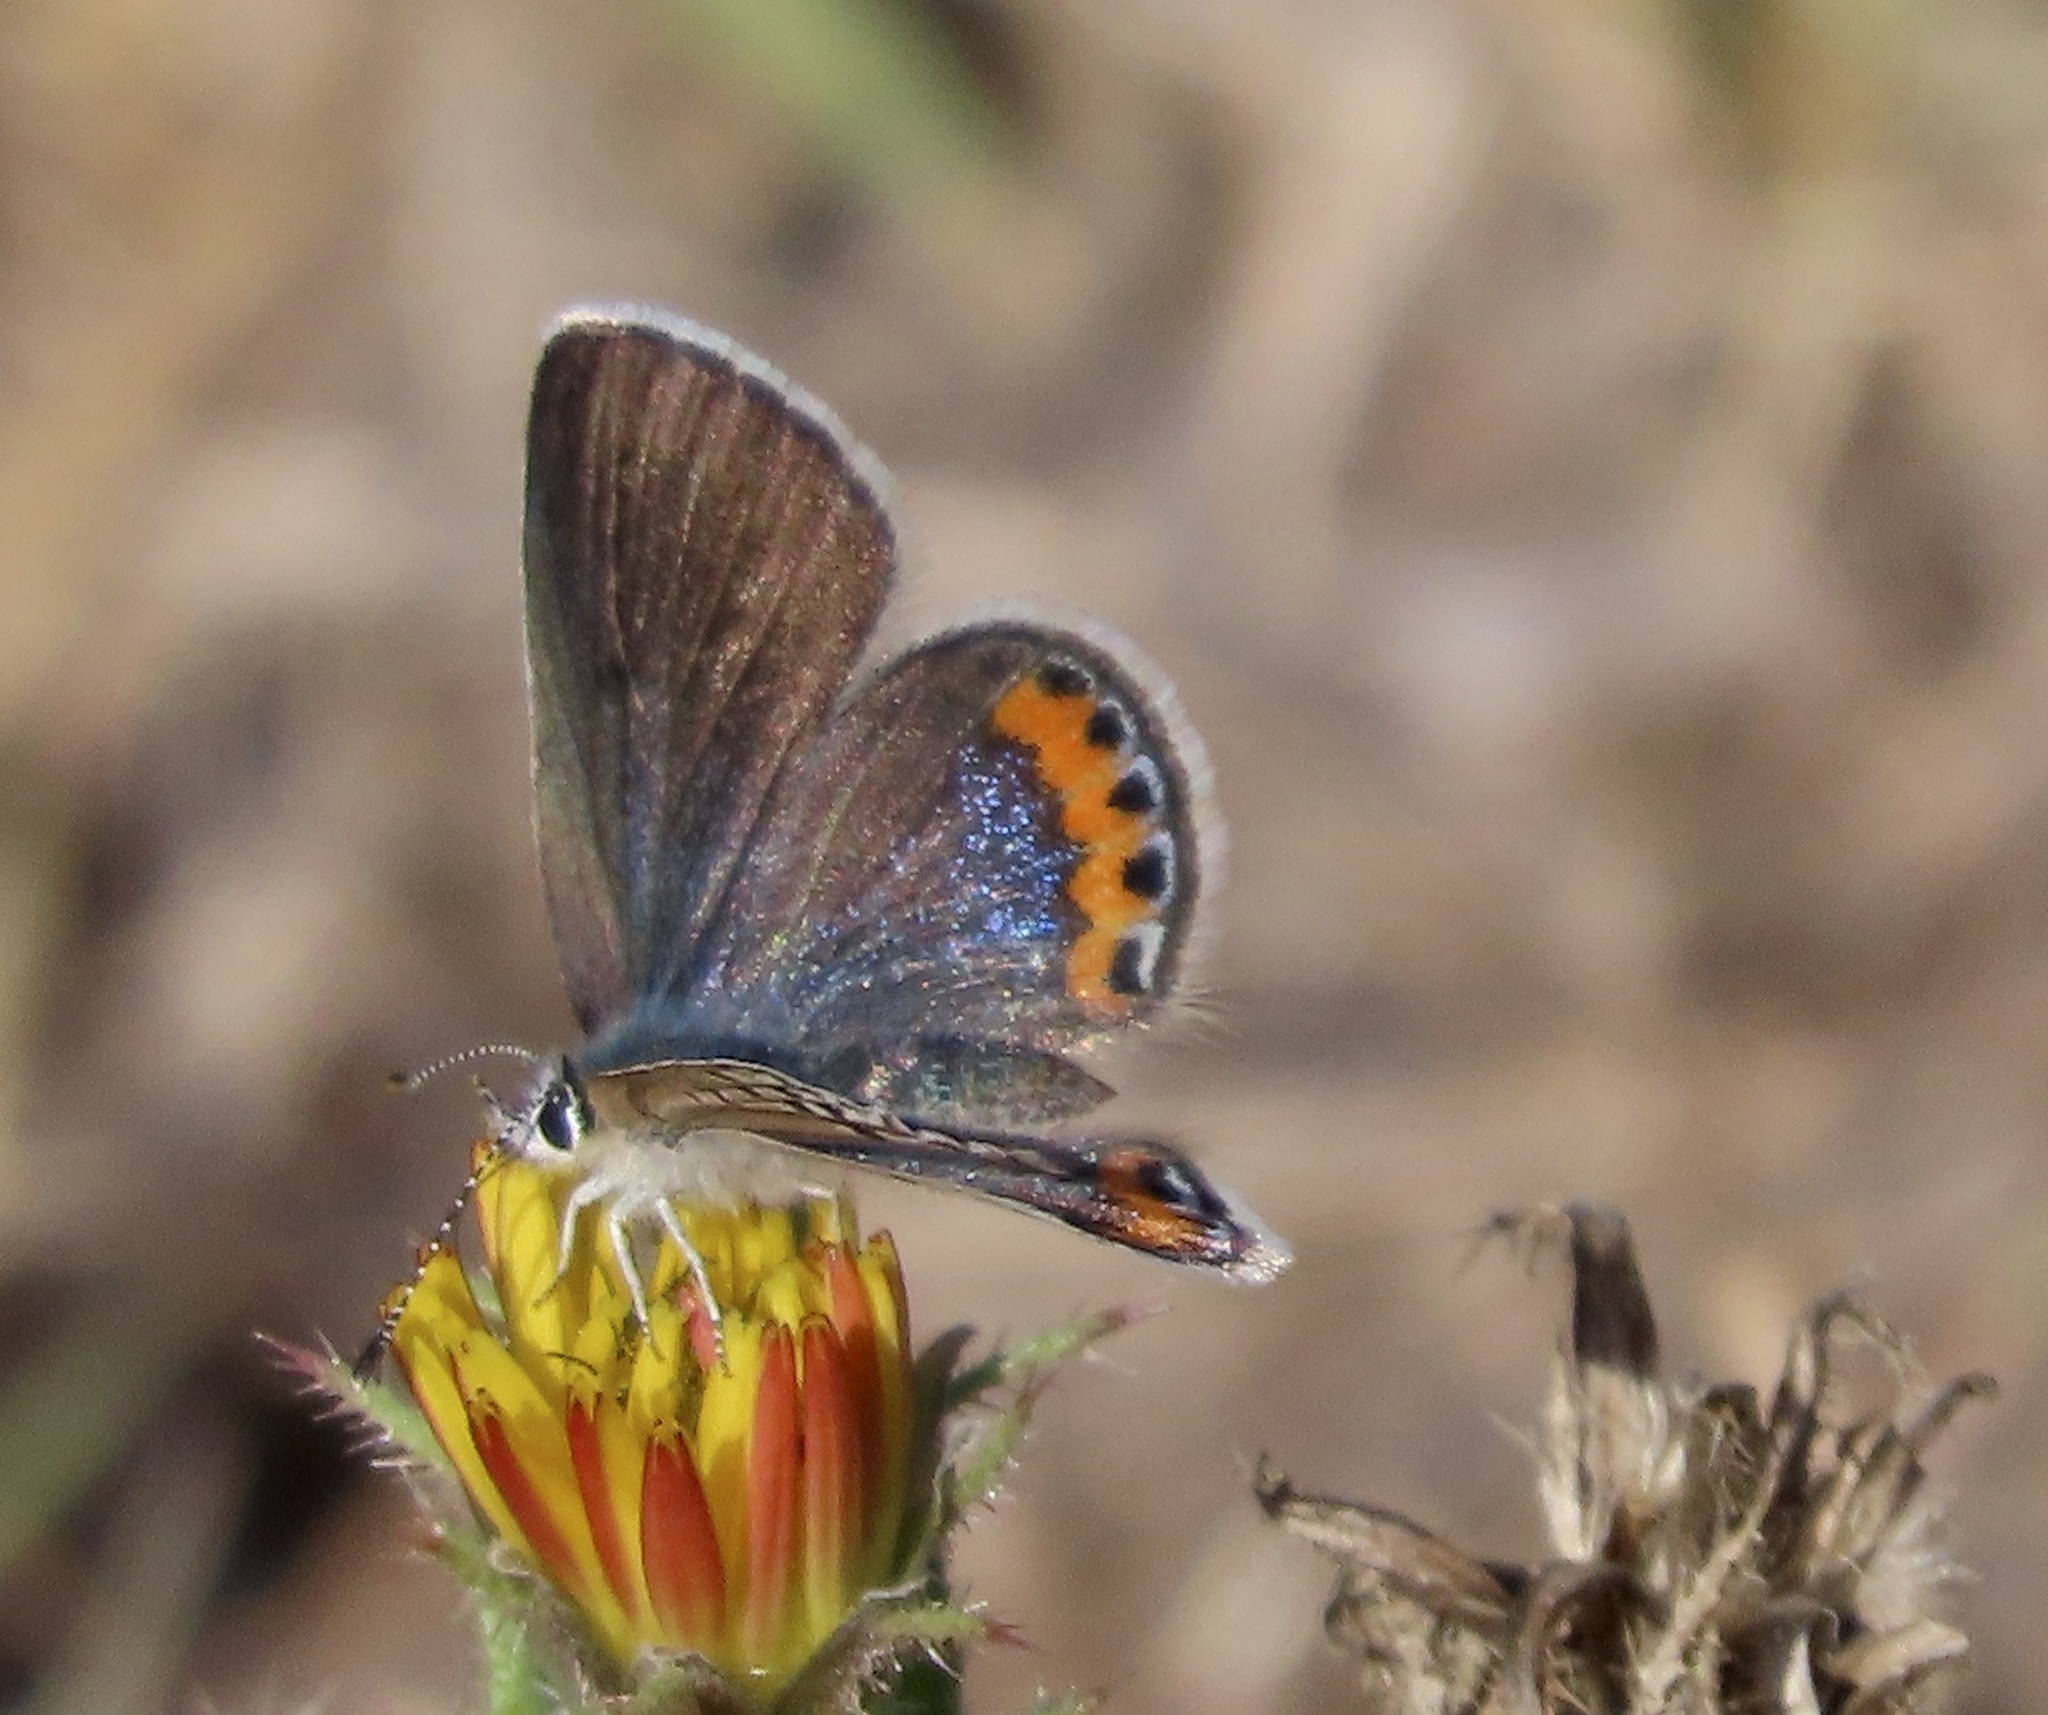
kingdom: Animalia
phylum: Arthropoda
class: Insecta
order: Lepidoptera
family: Lycaenidae
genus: Icaricia
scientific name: Icaricia acmon
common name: Acmon blue
